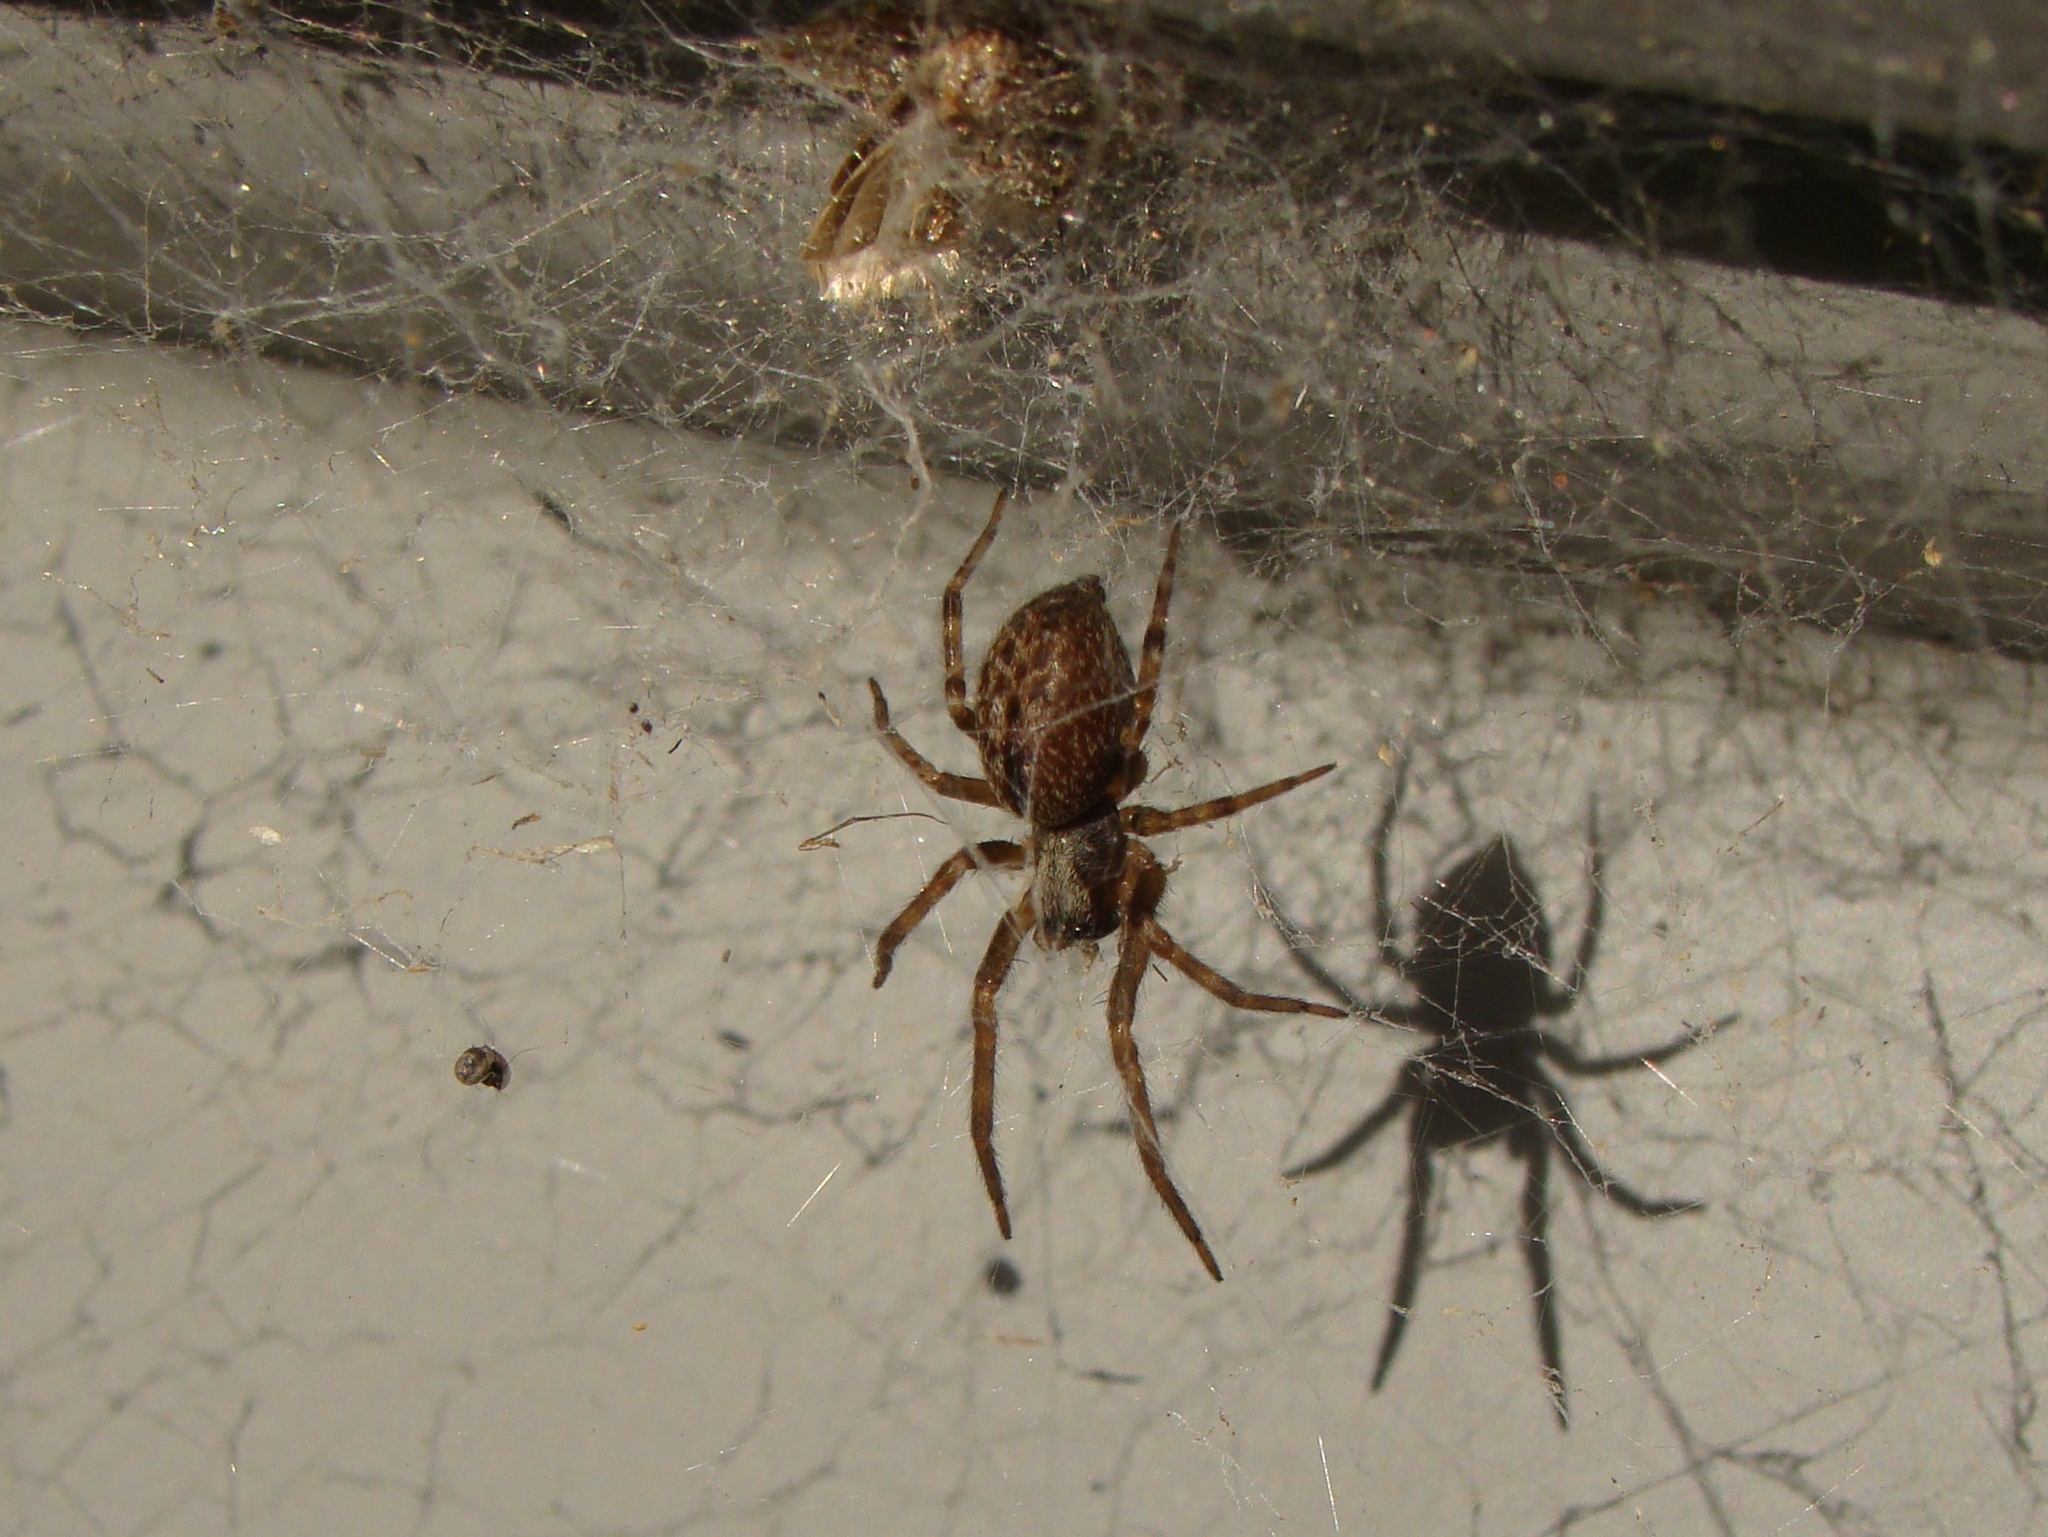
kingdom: Animalia
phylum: Arthropoda
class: Arachnida
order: Araneae
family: Desidae
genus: Badumna
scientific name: Badumna longinqua
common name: Gray house spider
